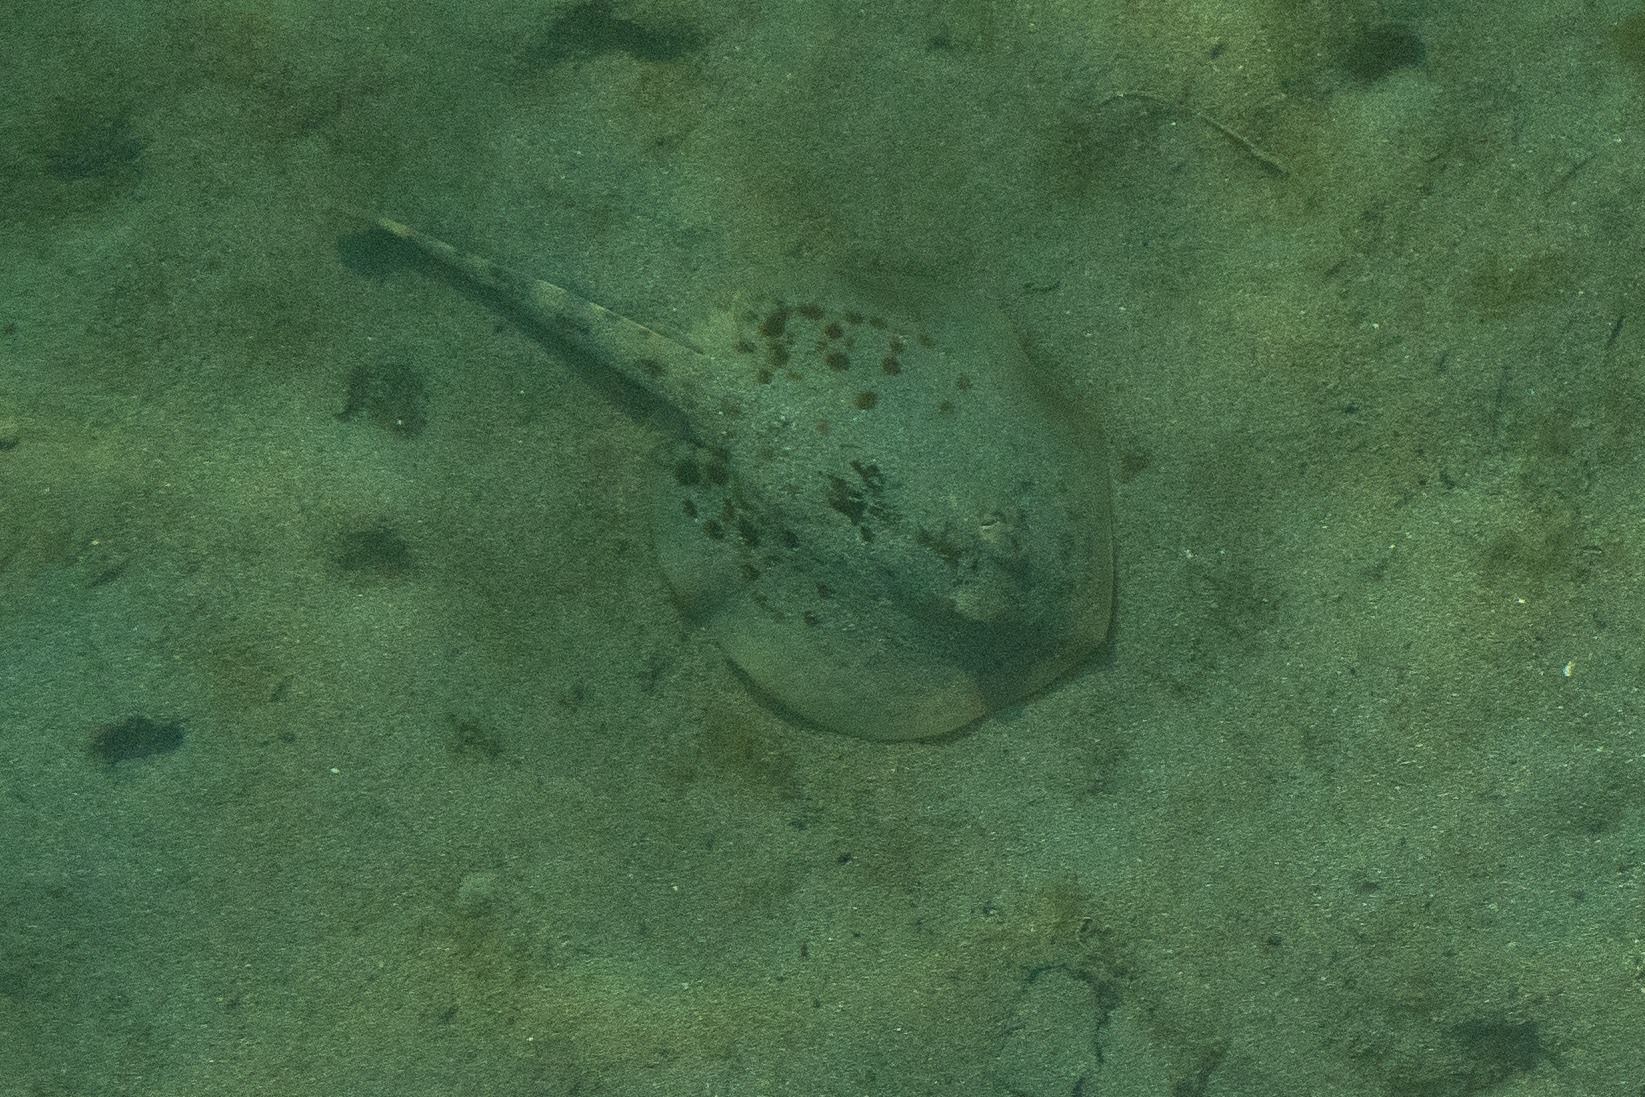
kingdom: Animalia
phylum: Chordata
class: Elasmobranchii
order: Myliobatiformes
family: Urotrygonidae
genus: Urobatis
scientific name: Urobatis jamaicensis
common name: Yellow stingray
